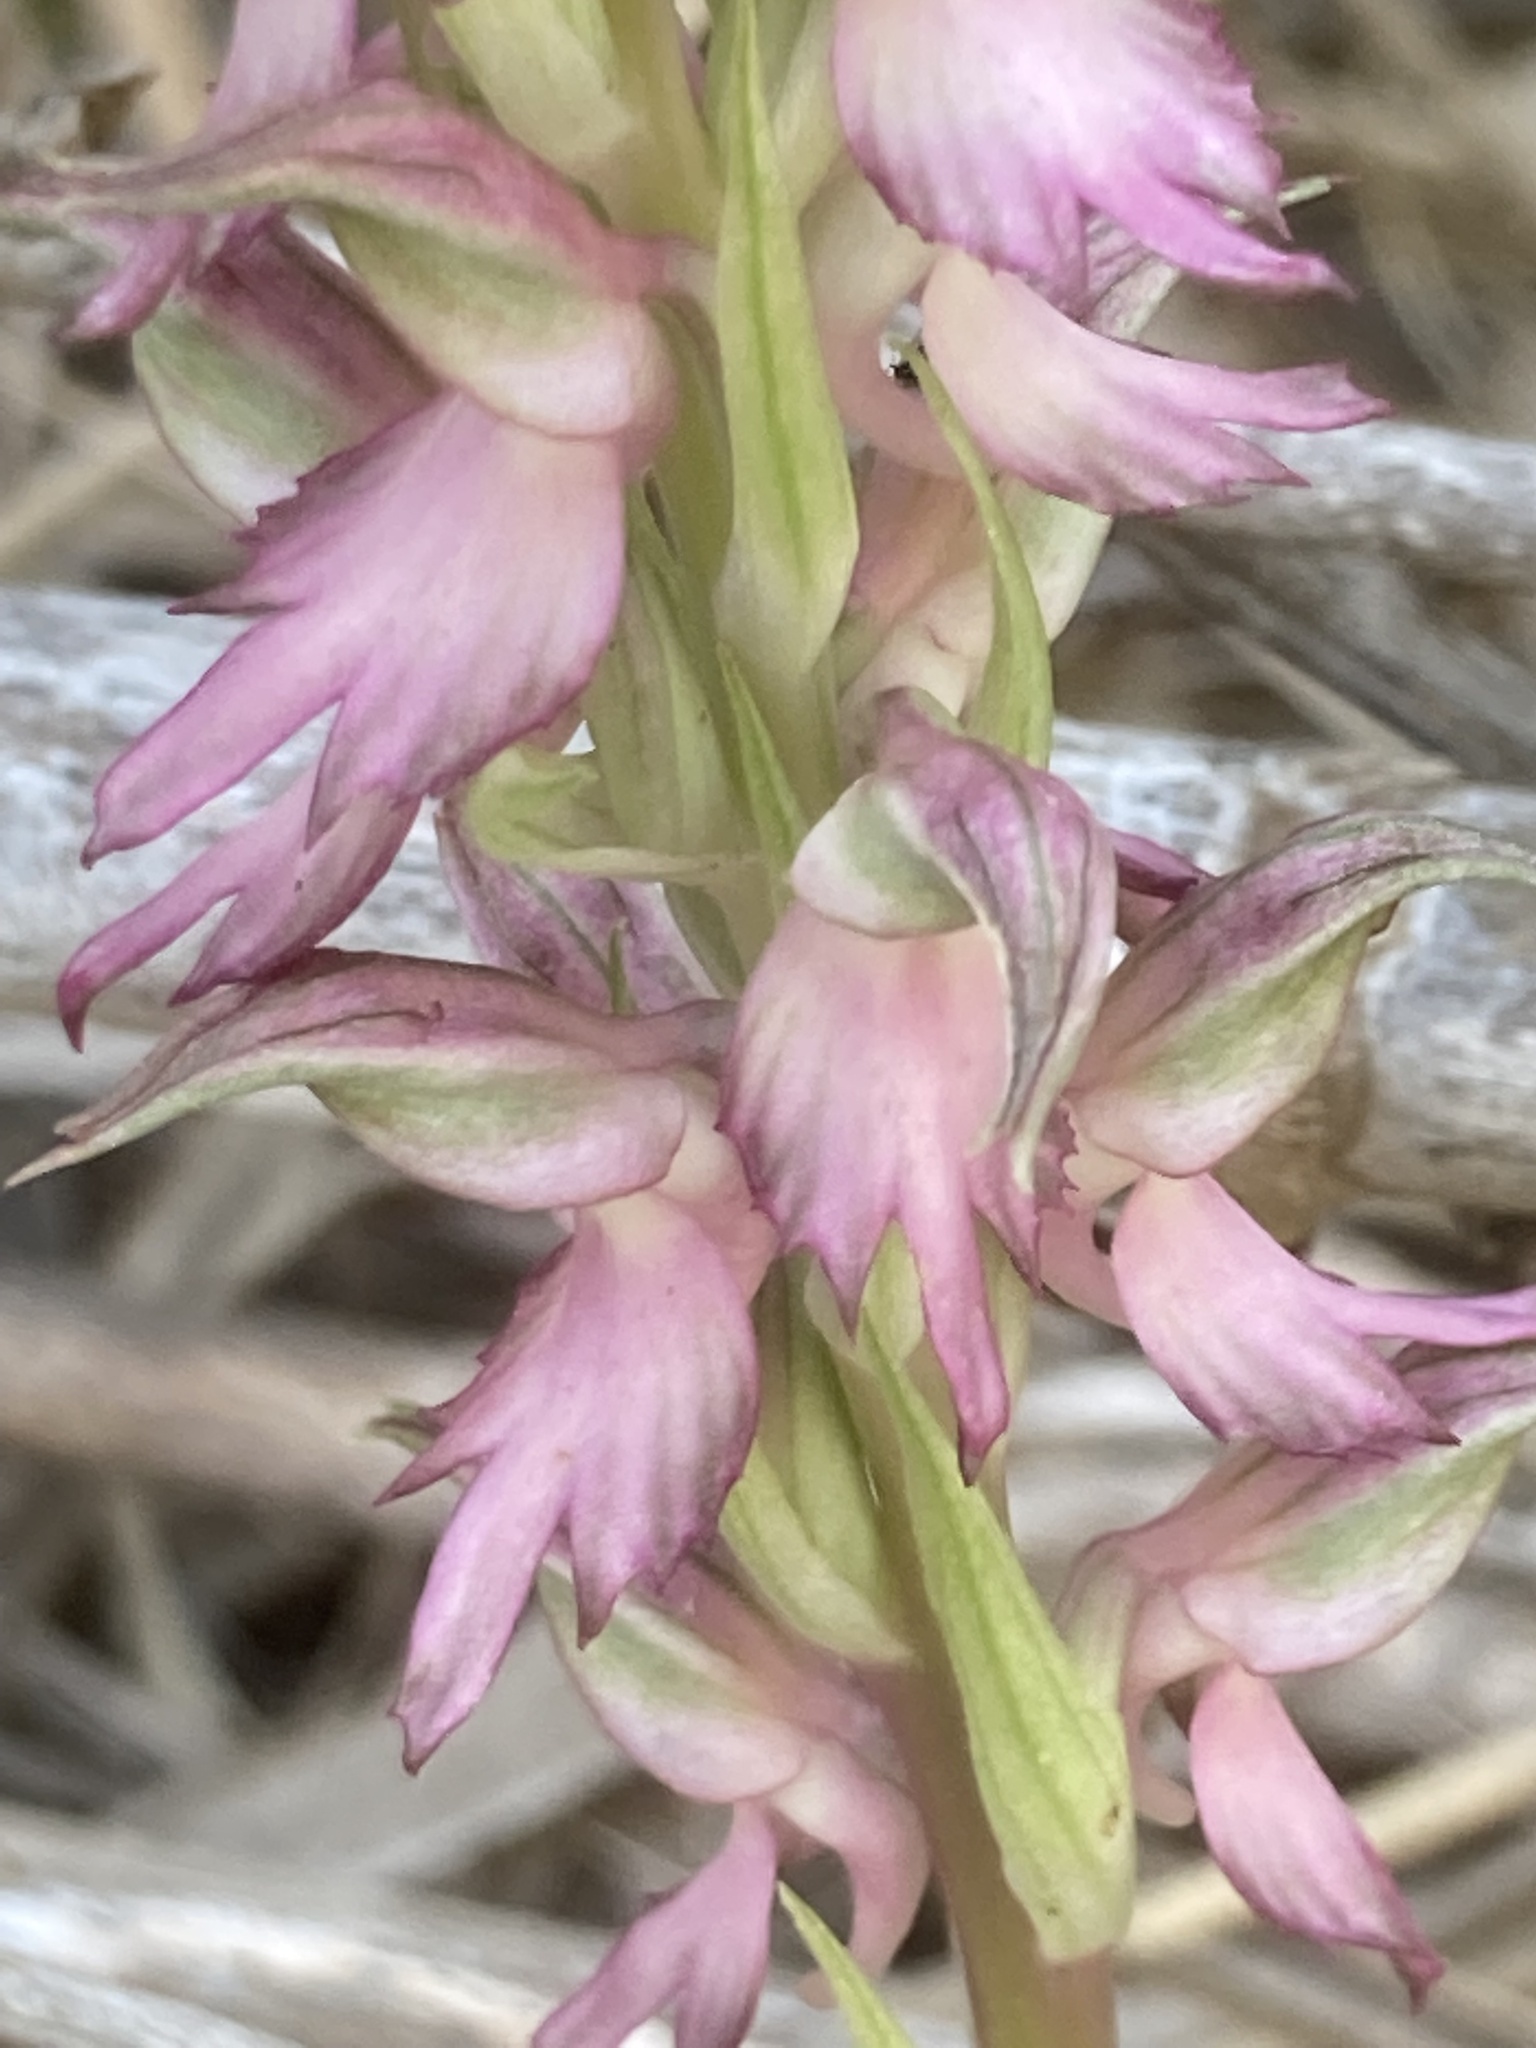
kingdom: Plantae
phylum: Tracheophyta
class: Liliopsida
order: Asparagales
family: Orchidaceae
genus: Anacamptis
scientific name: Anacamptis sancta
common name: Holy orchid
